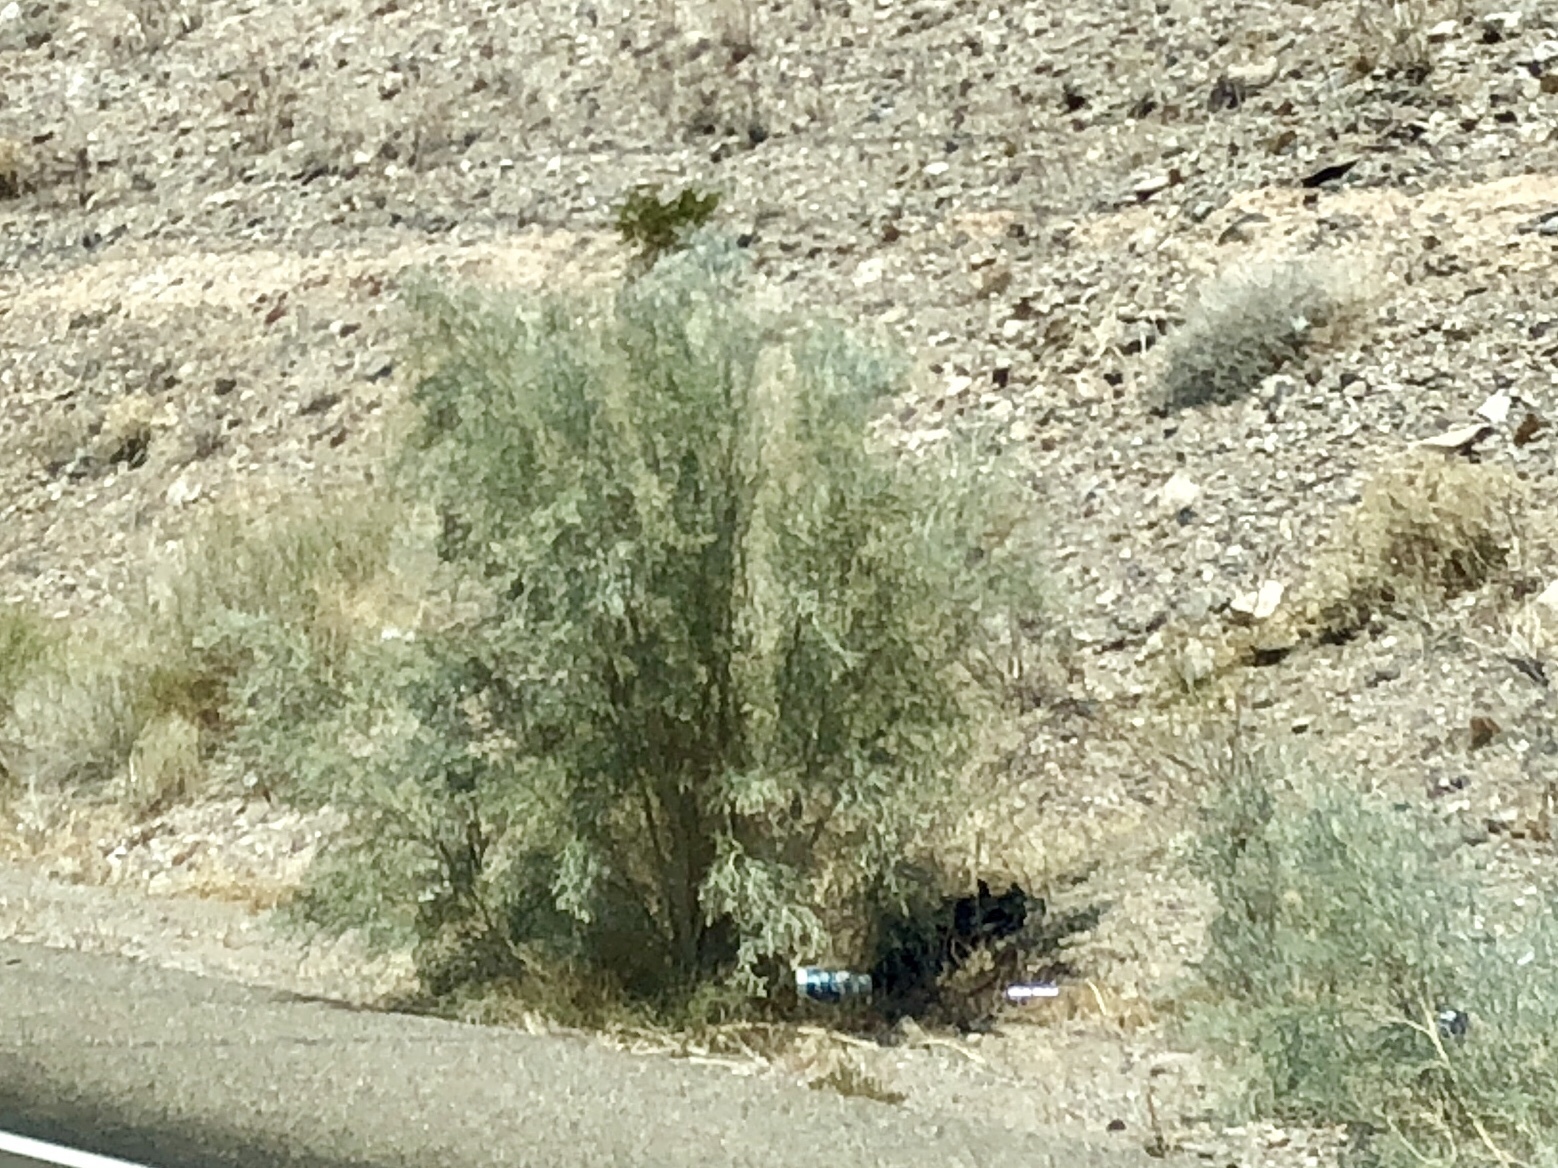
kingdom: Plantae
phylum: Tracheophyta
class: Magnoliopsida
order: Fabales
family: Fabaceae
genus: Psorothamnus
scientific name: Psorothamnus spinosus
